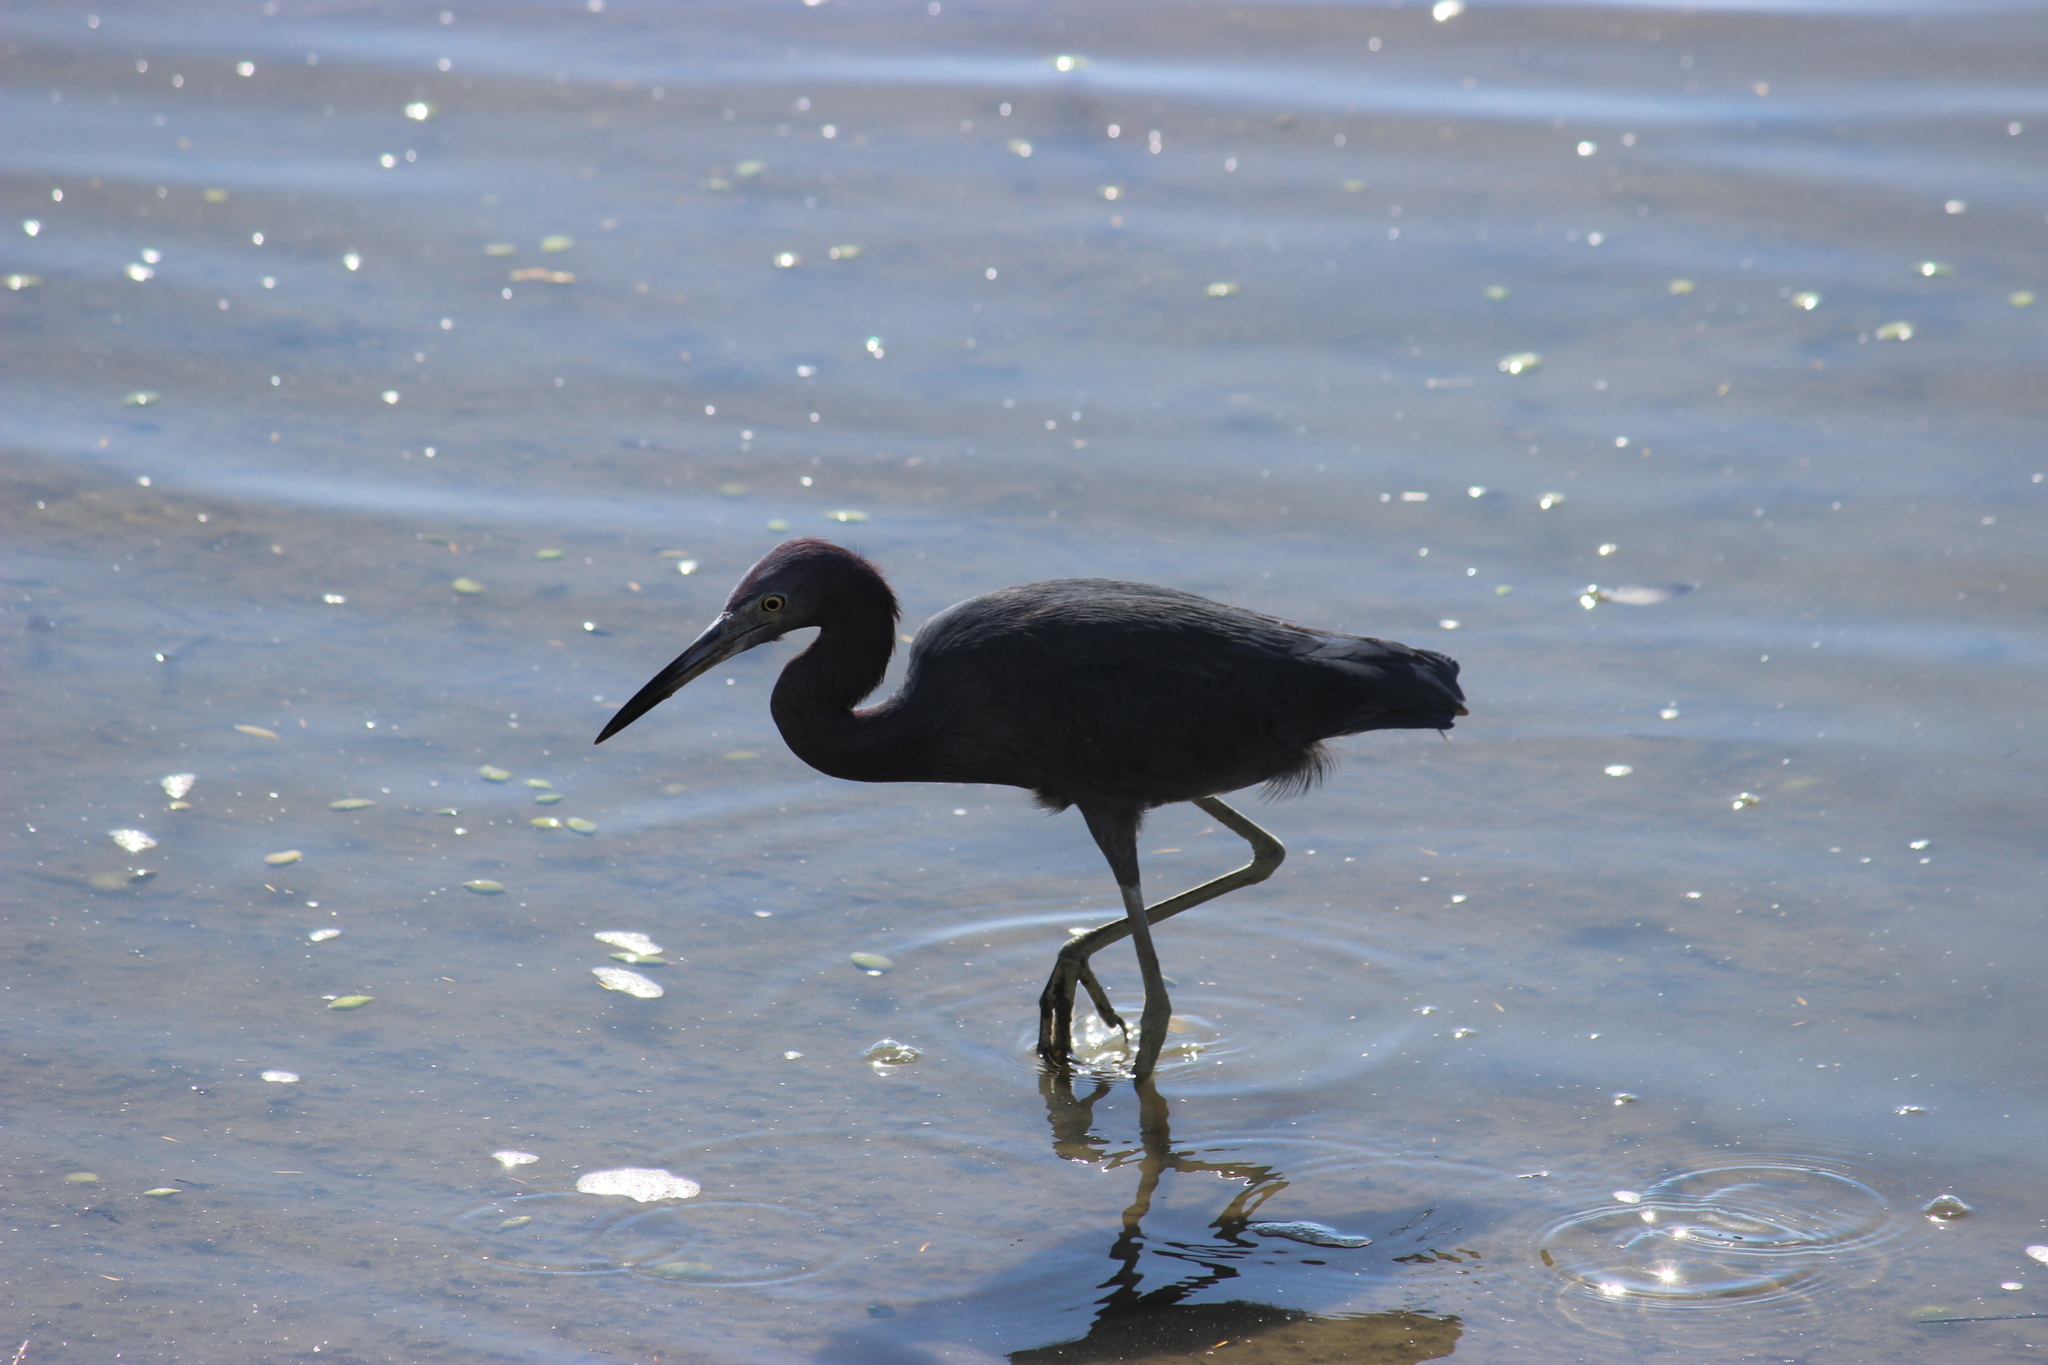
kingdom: Animalia
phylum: Chordata
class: Aves
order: Pelecaniformes
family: Ardeidae
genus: Egretta
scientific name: Egretta caerulea
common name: Little blue heron
